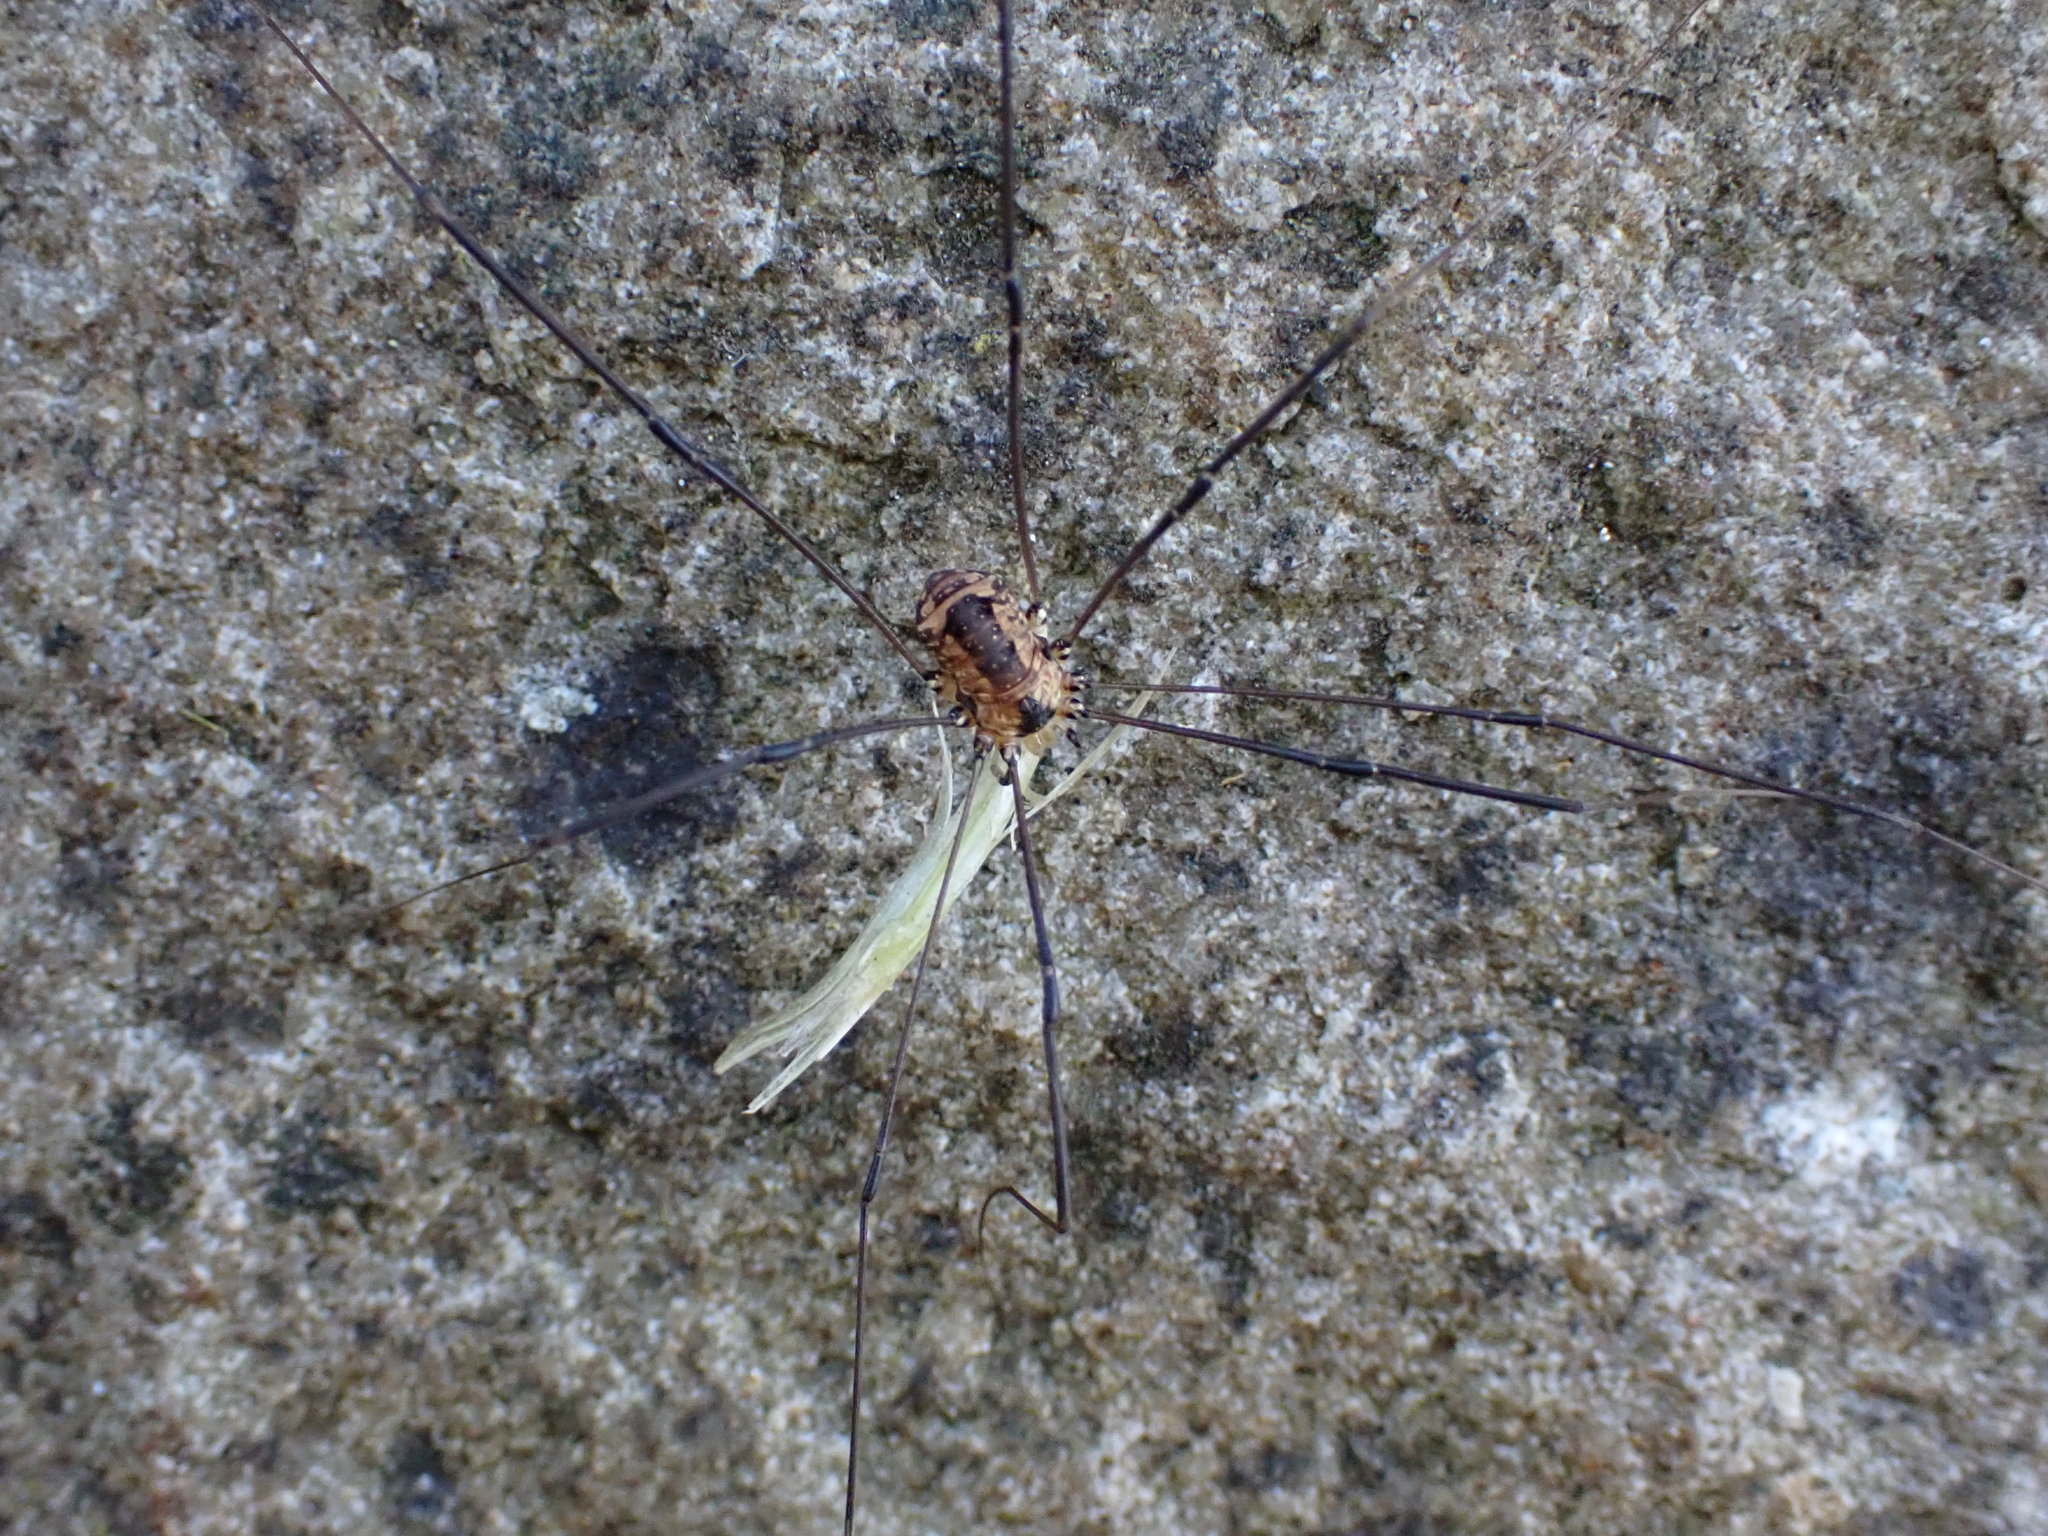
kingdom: Animalia
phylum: Arthropoda
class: Arachnida
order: Opiliones
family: Sclerosomatidae
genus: Leiobunum
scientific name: Leiobunum rotundum
